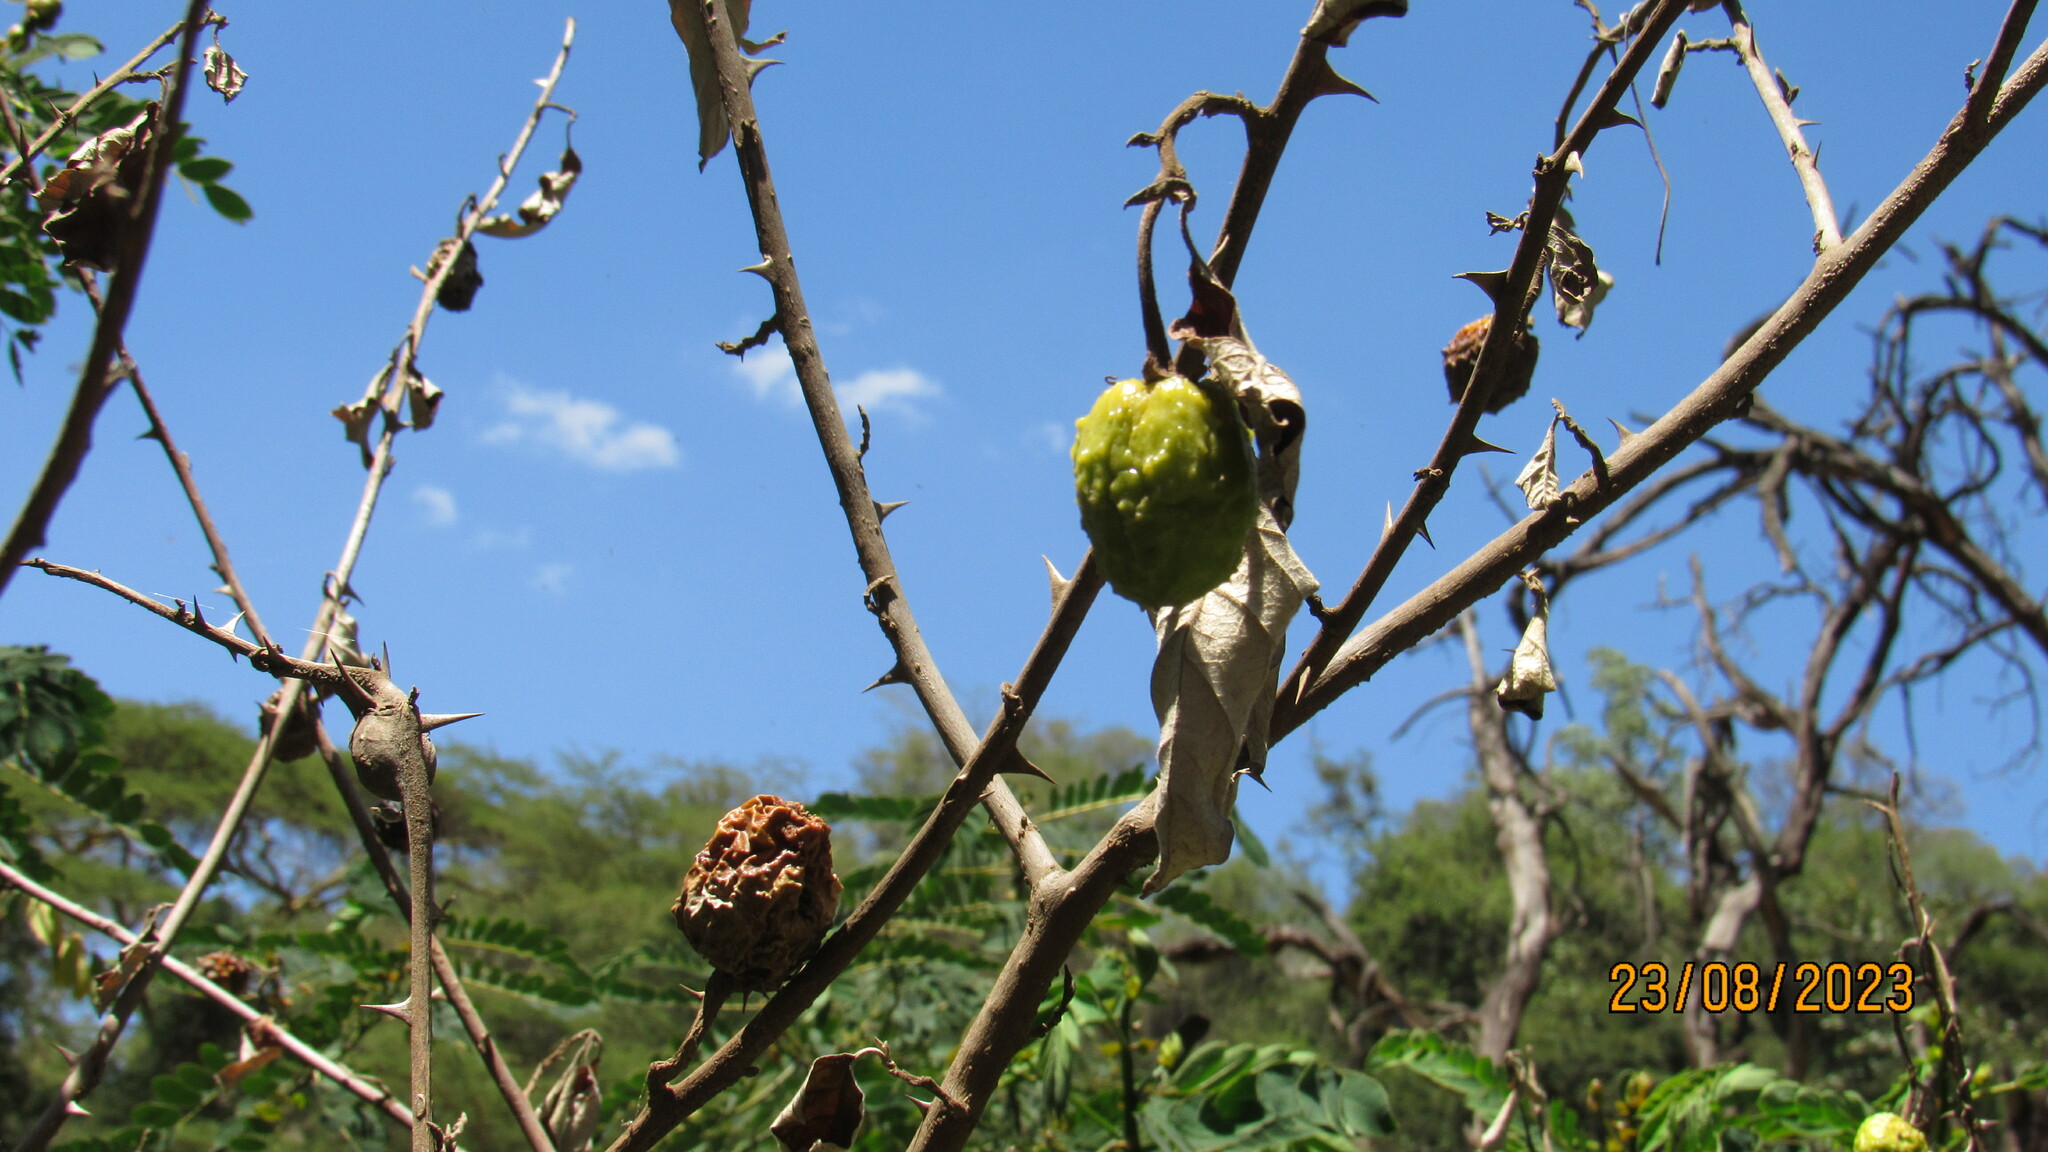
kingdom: Plantae
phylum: Tracheophyta
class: Magnoliopsida
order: Solanales
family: Solanaceae
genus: Solanum
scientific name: Solanum aculeastrum
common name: Goat bitter-apple
